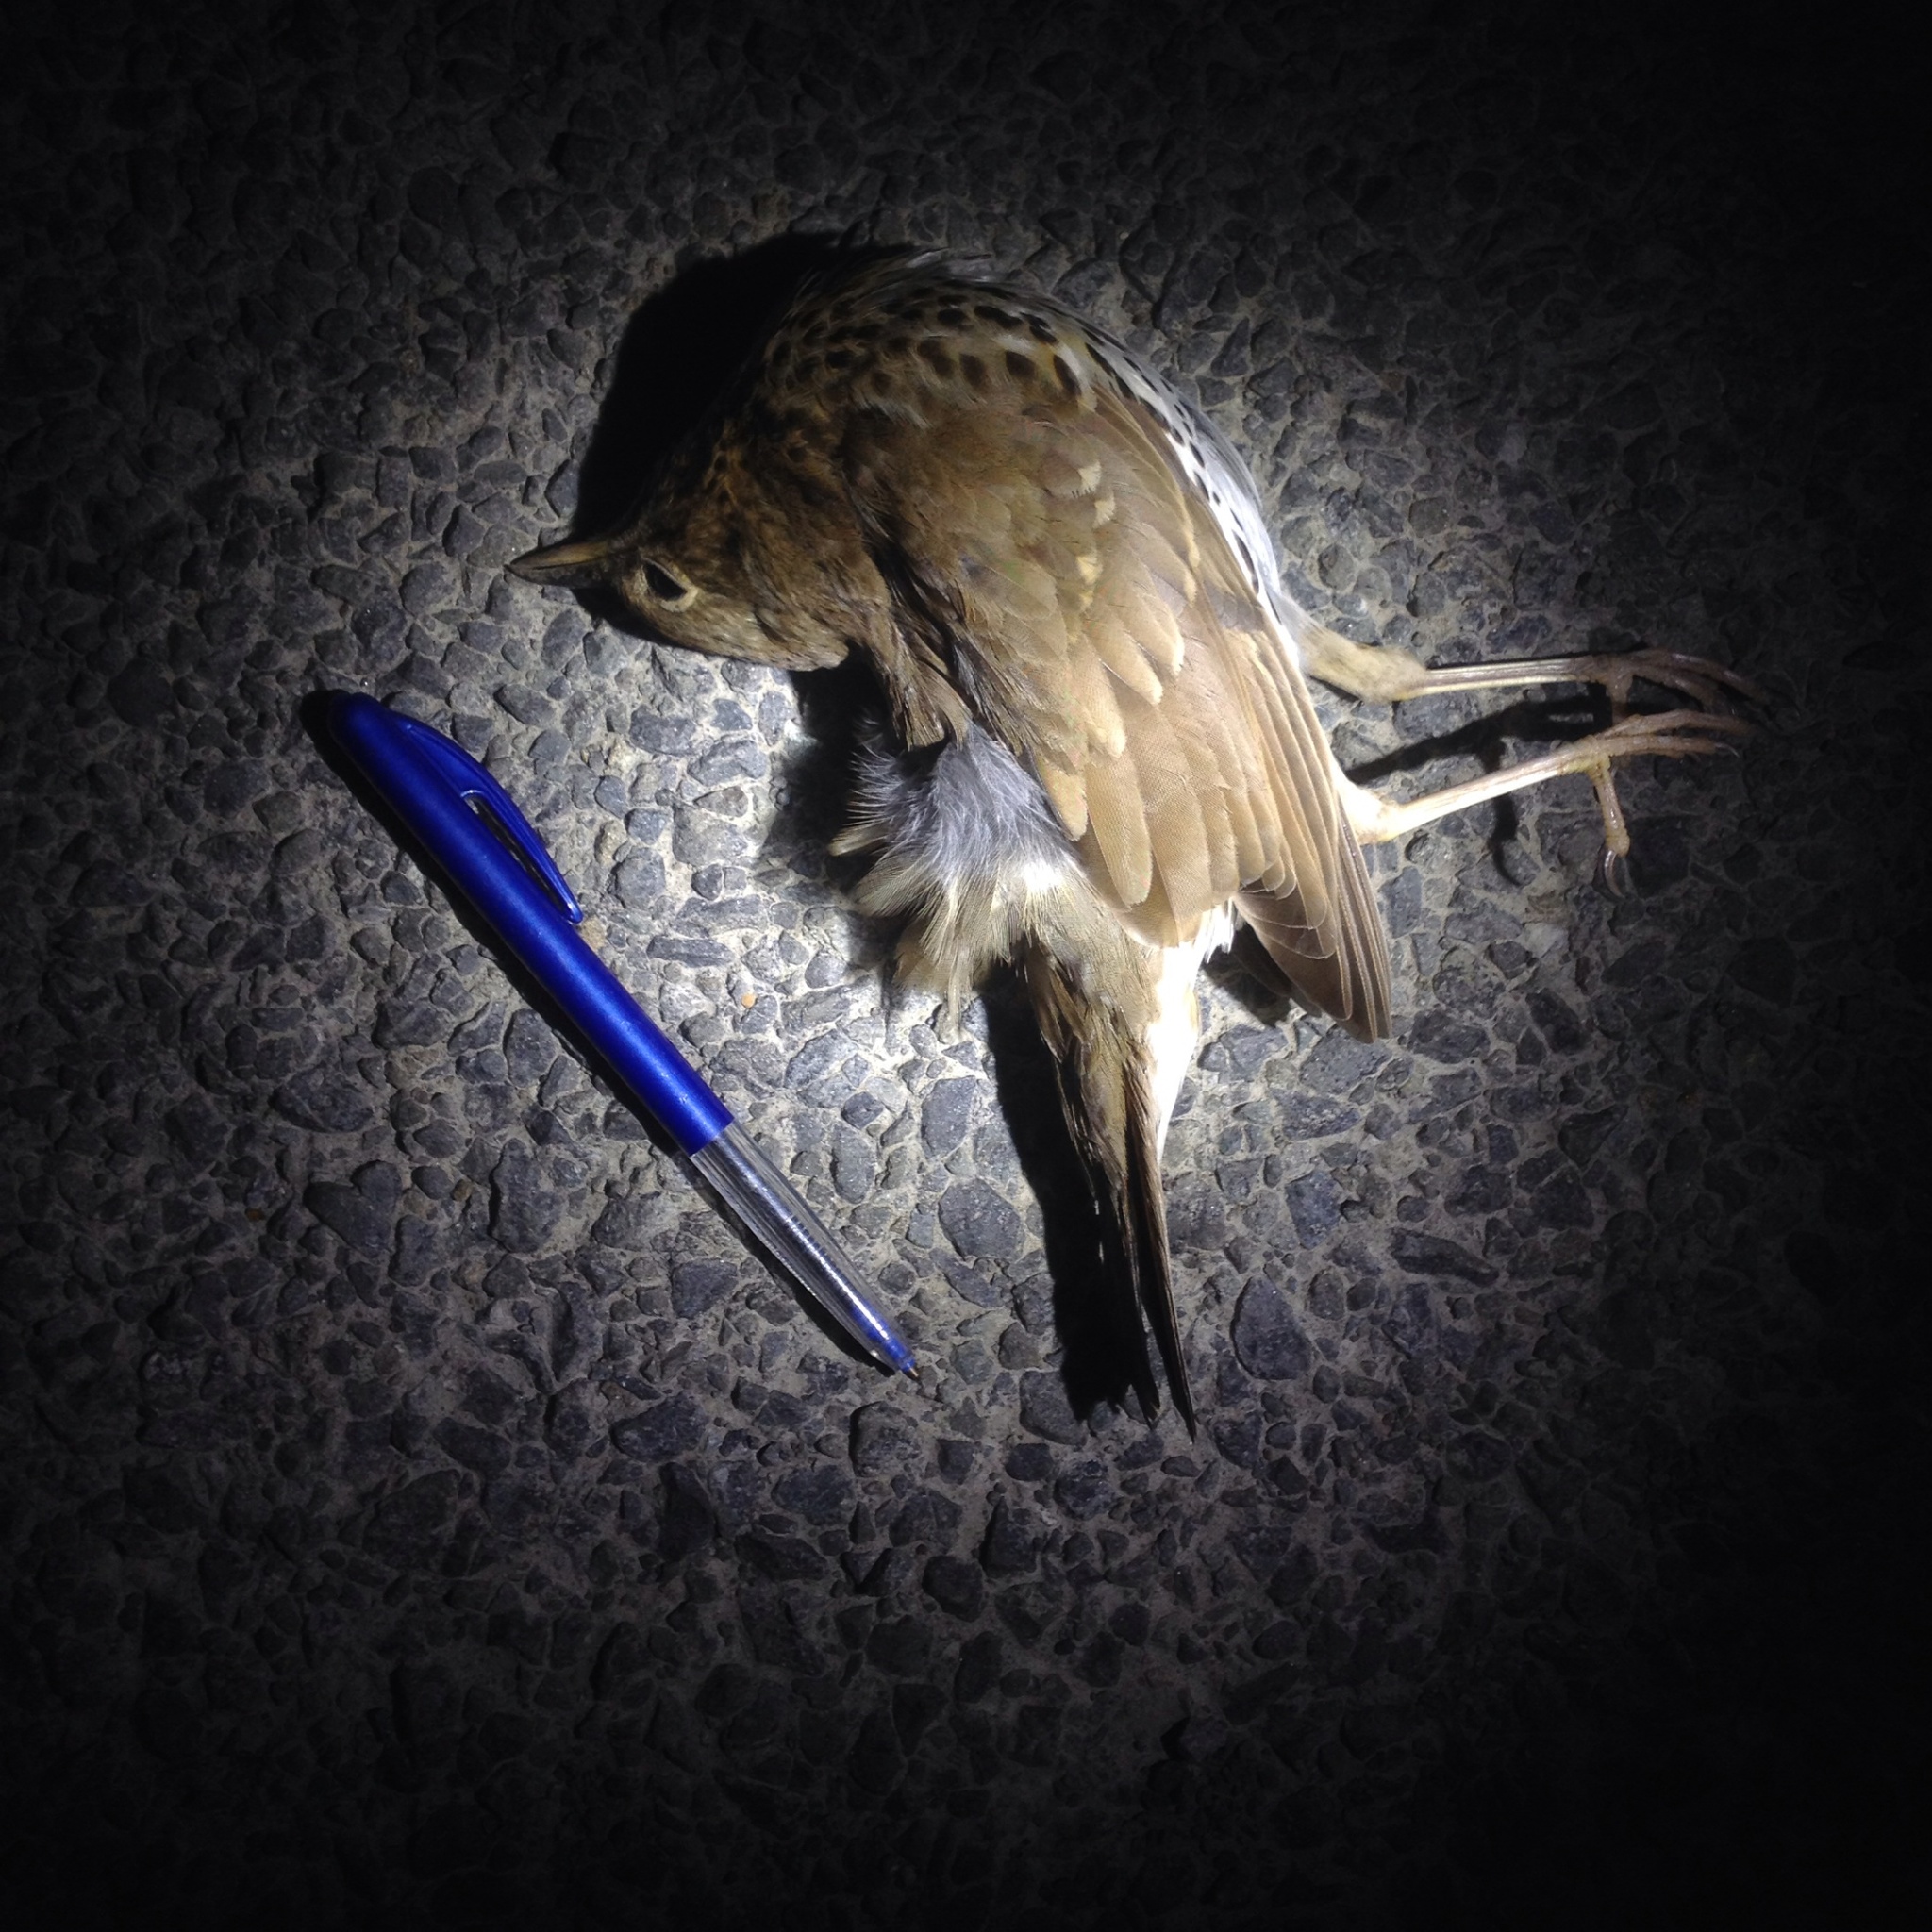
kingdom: Animalia
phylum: Chordata
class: Aves
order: Passeriformes
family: Turdidae
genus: Turdus
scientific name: Turdus philomelos
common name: Song thrush
